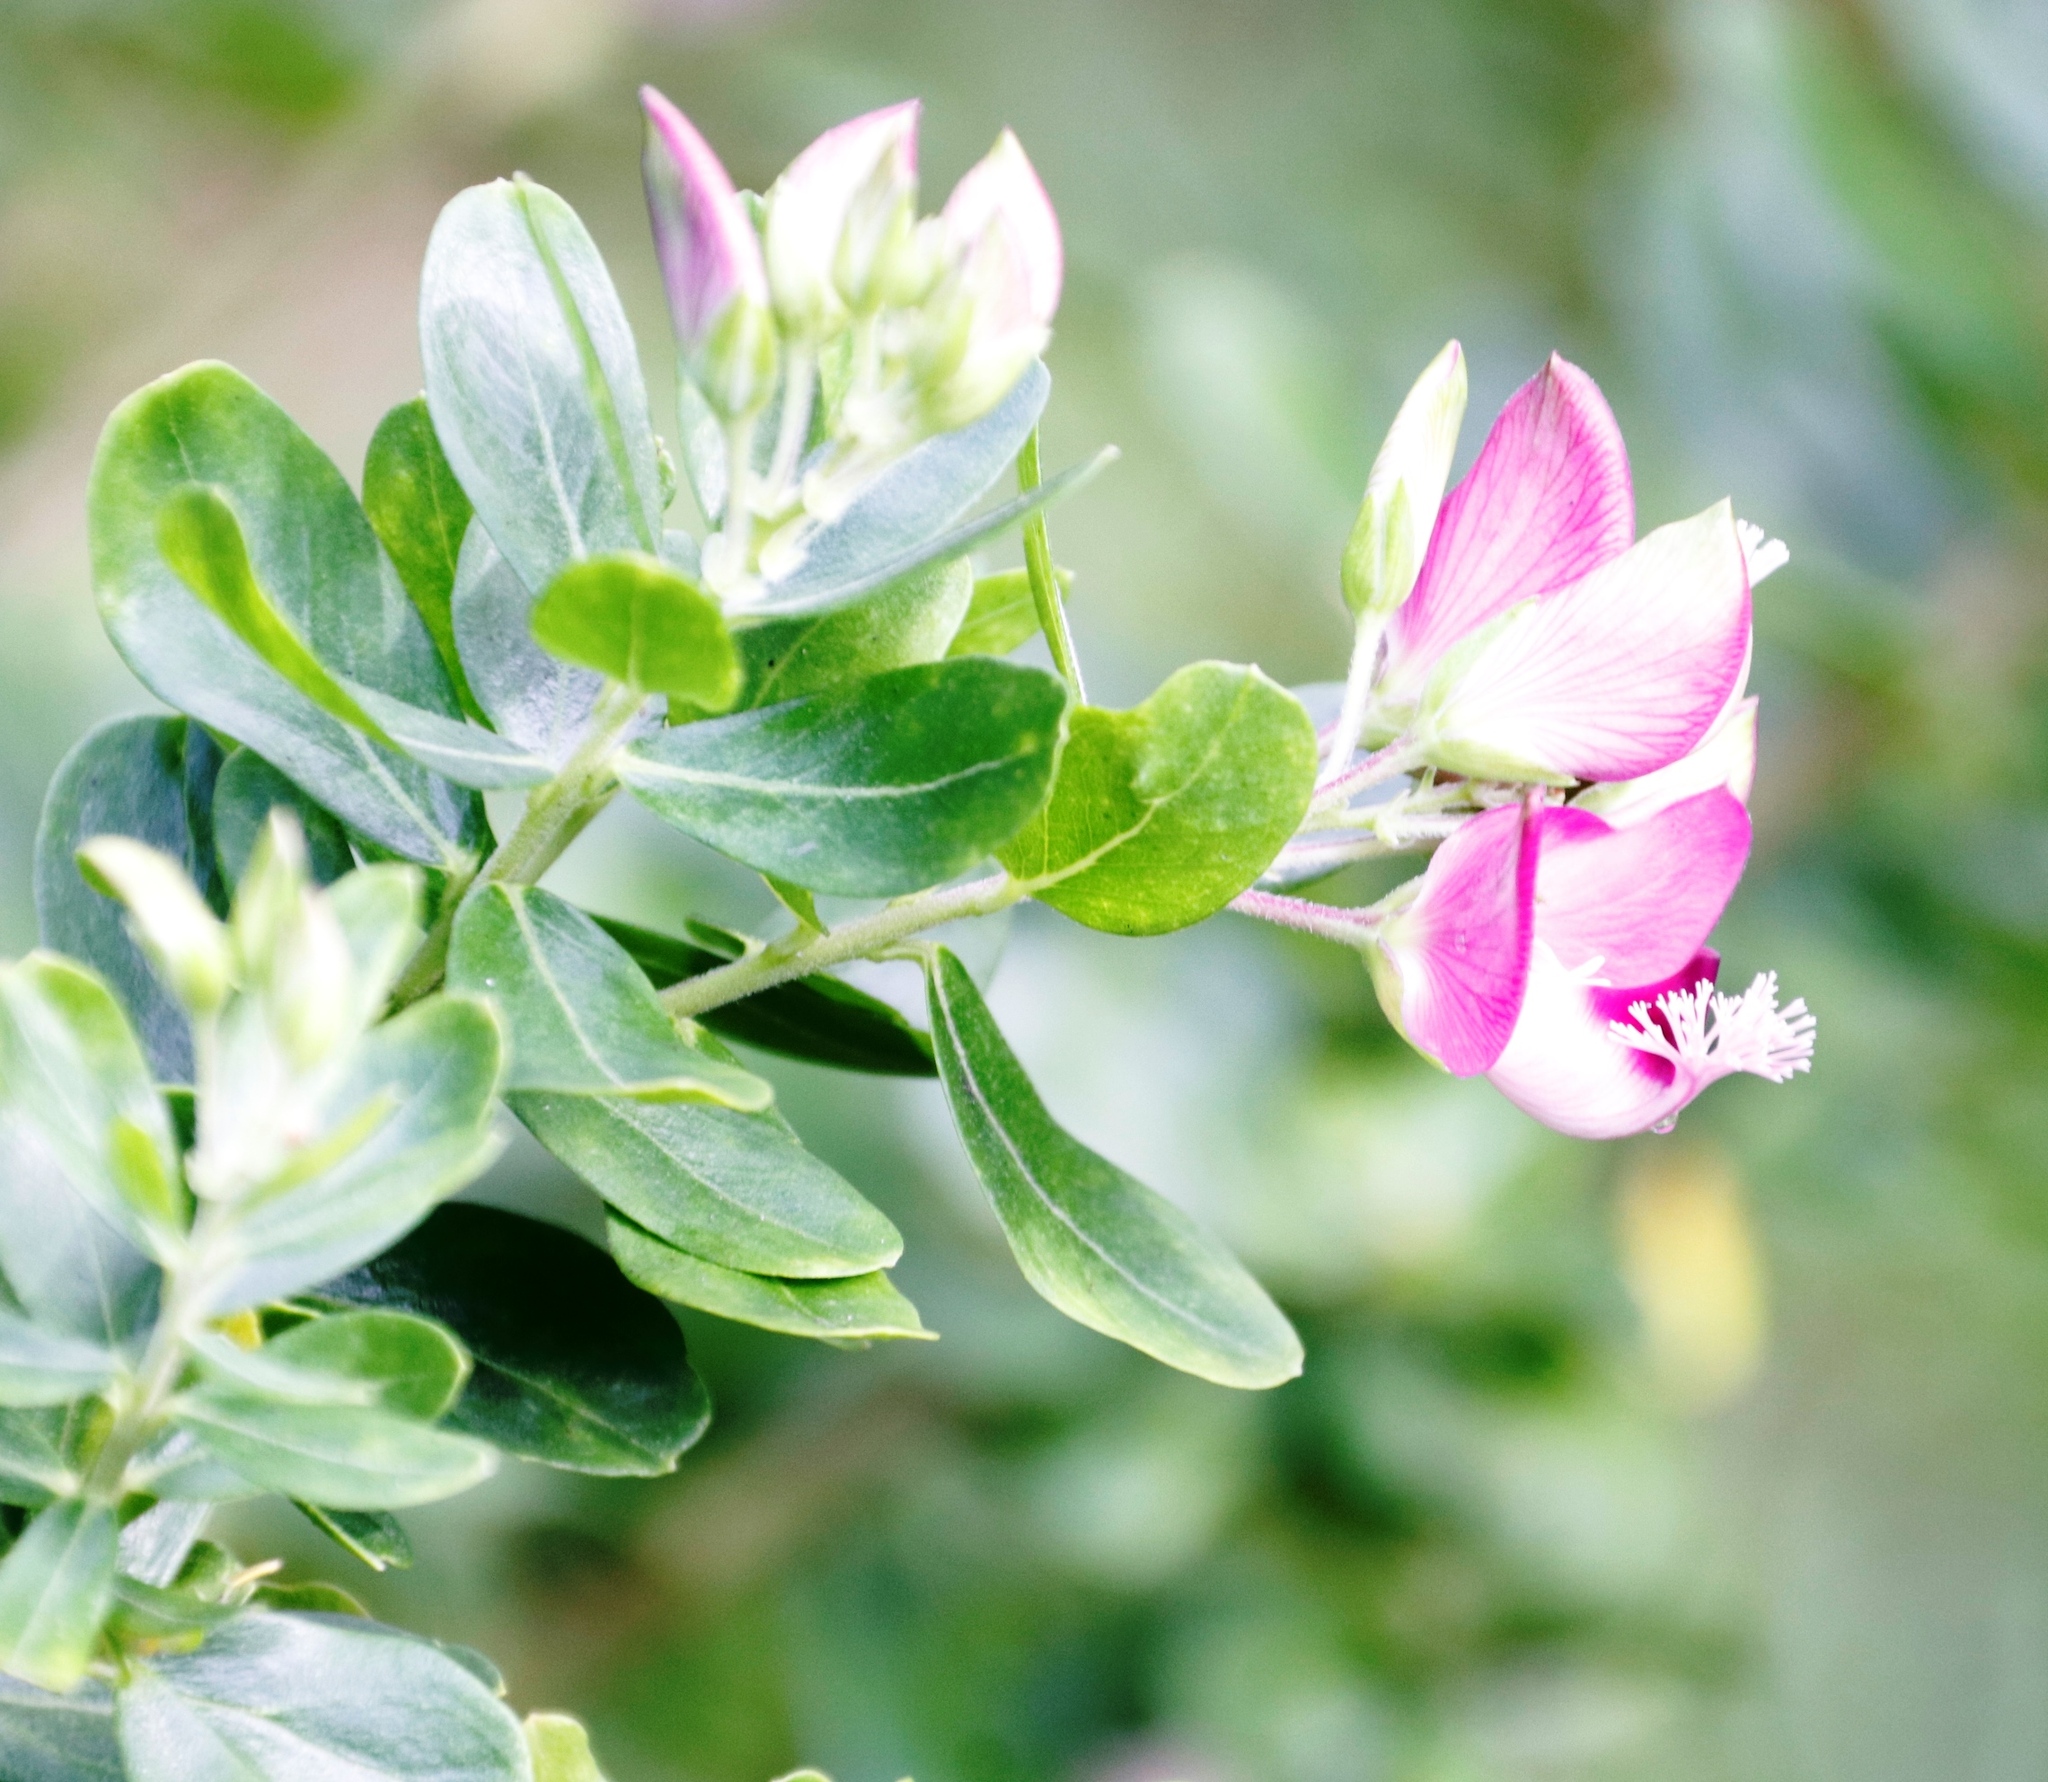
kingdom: Plantae
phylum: Tracheophyta
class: Magnoliopsida
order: Fabales
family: Polygalaceae
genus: Polygala
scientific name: Polygala myrtifolia
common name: Myrtle-leaf milkwort
